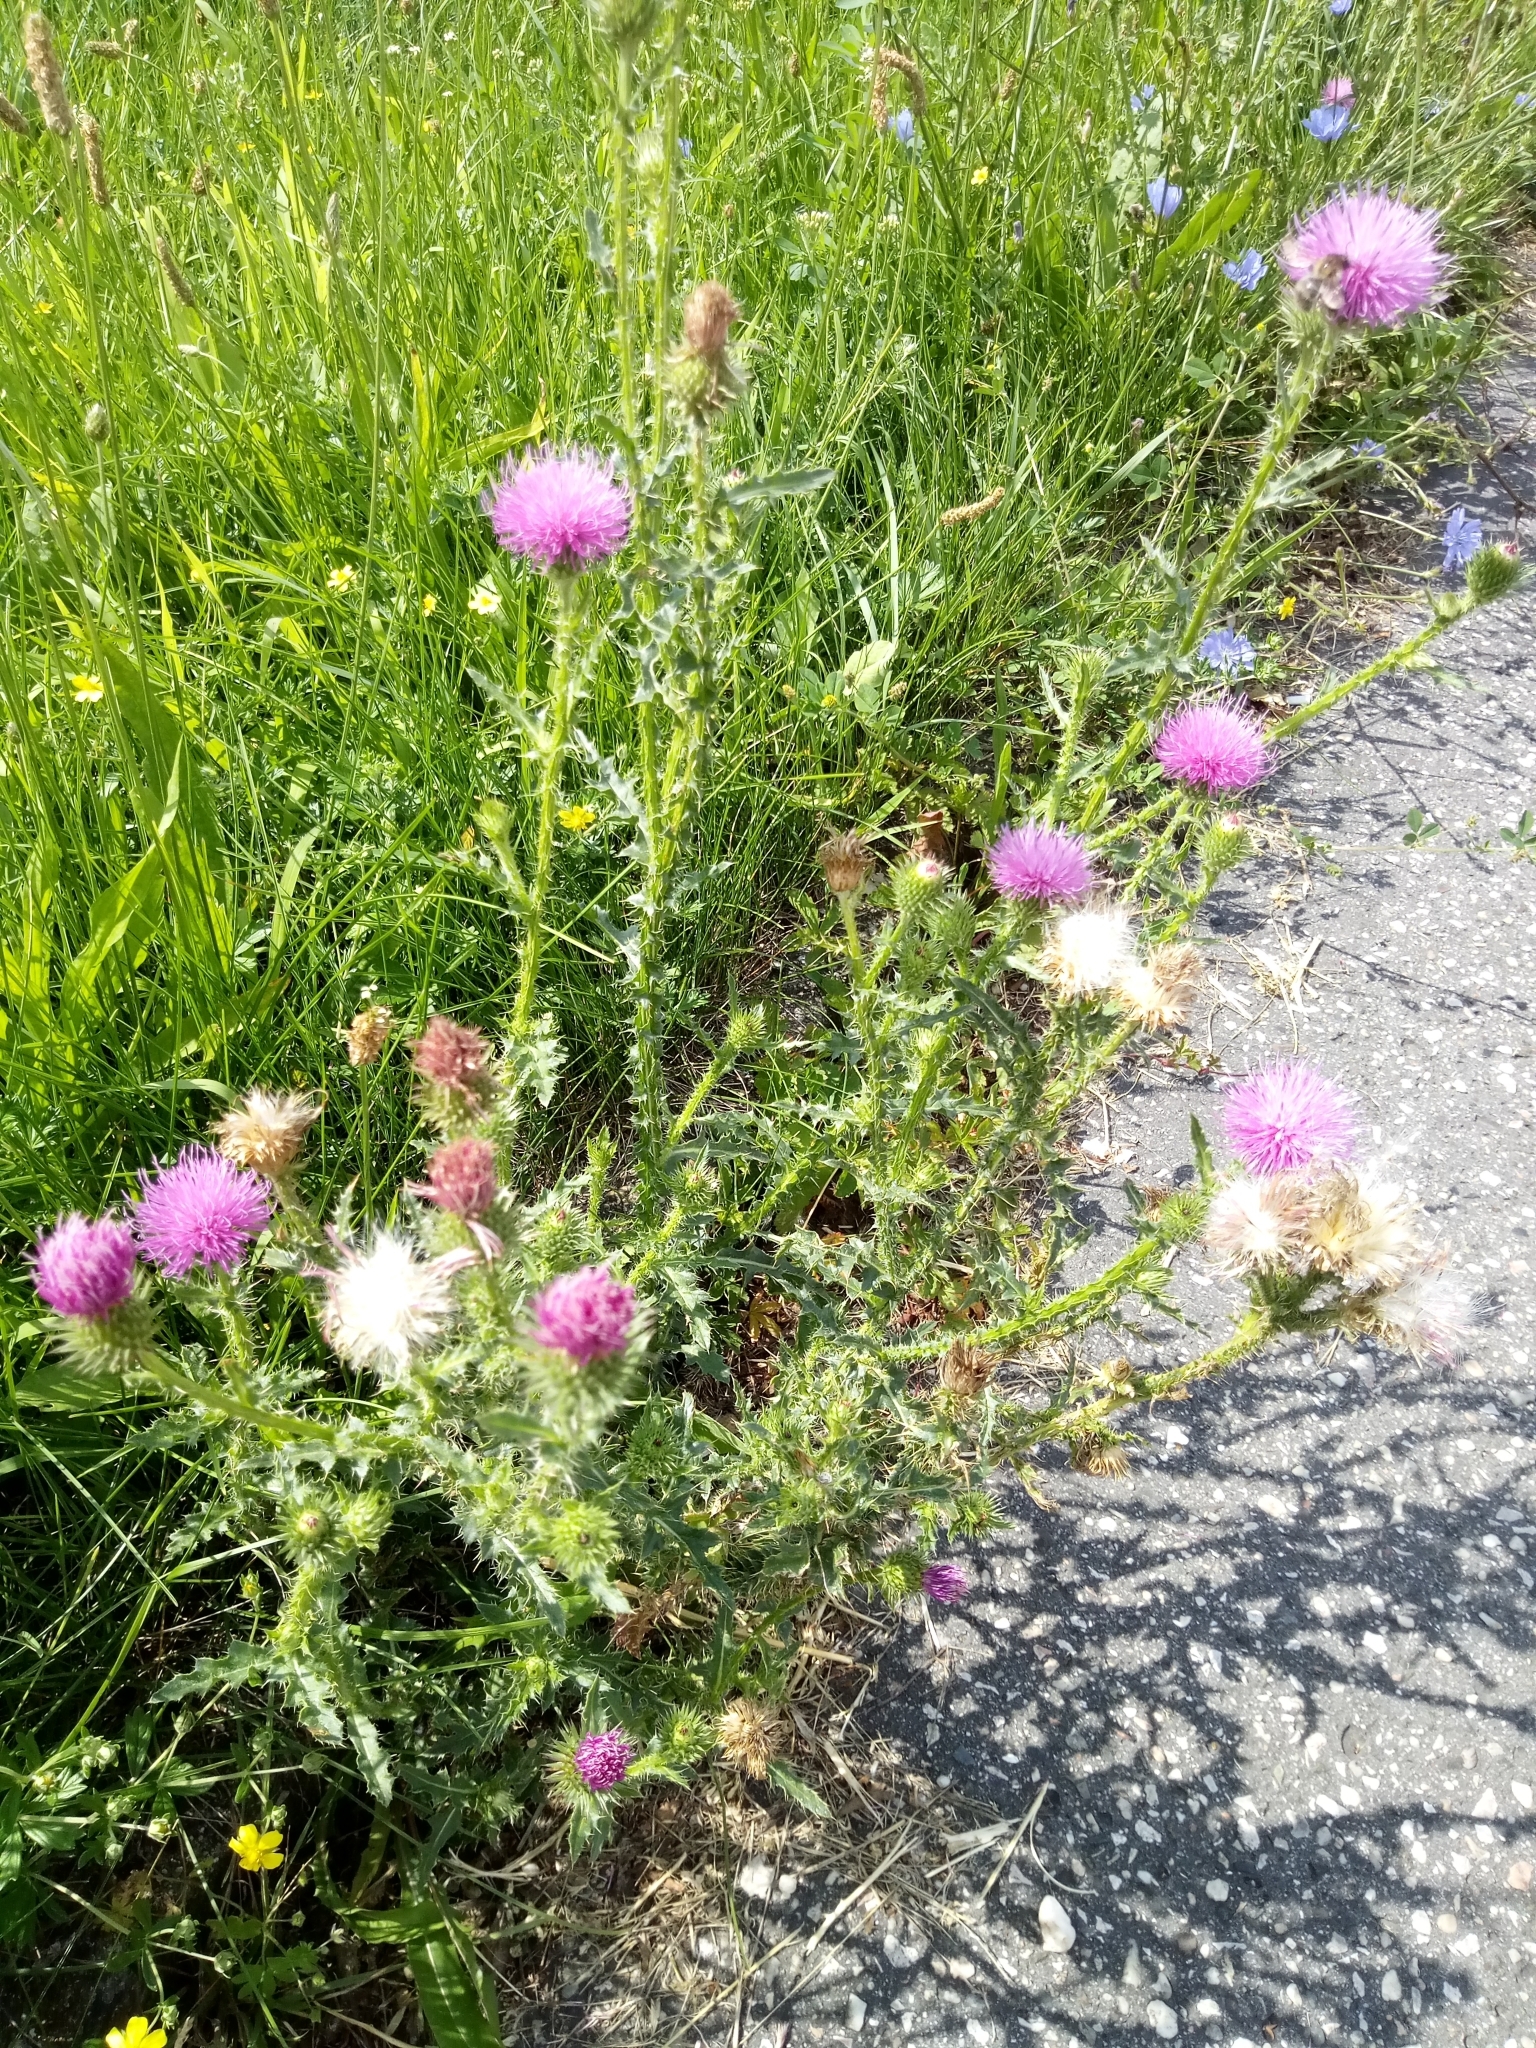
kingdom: Plantae
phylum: Tracheophyta
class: Magnoliopsida
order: Asterales
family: Asteraceae
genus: Carduus
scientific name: Carduus acanthoides
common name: Plumeless thistle
